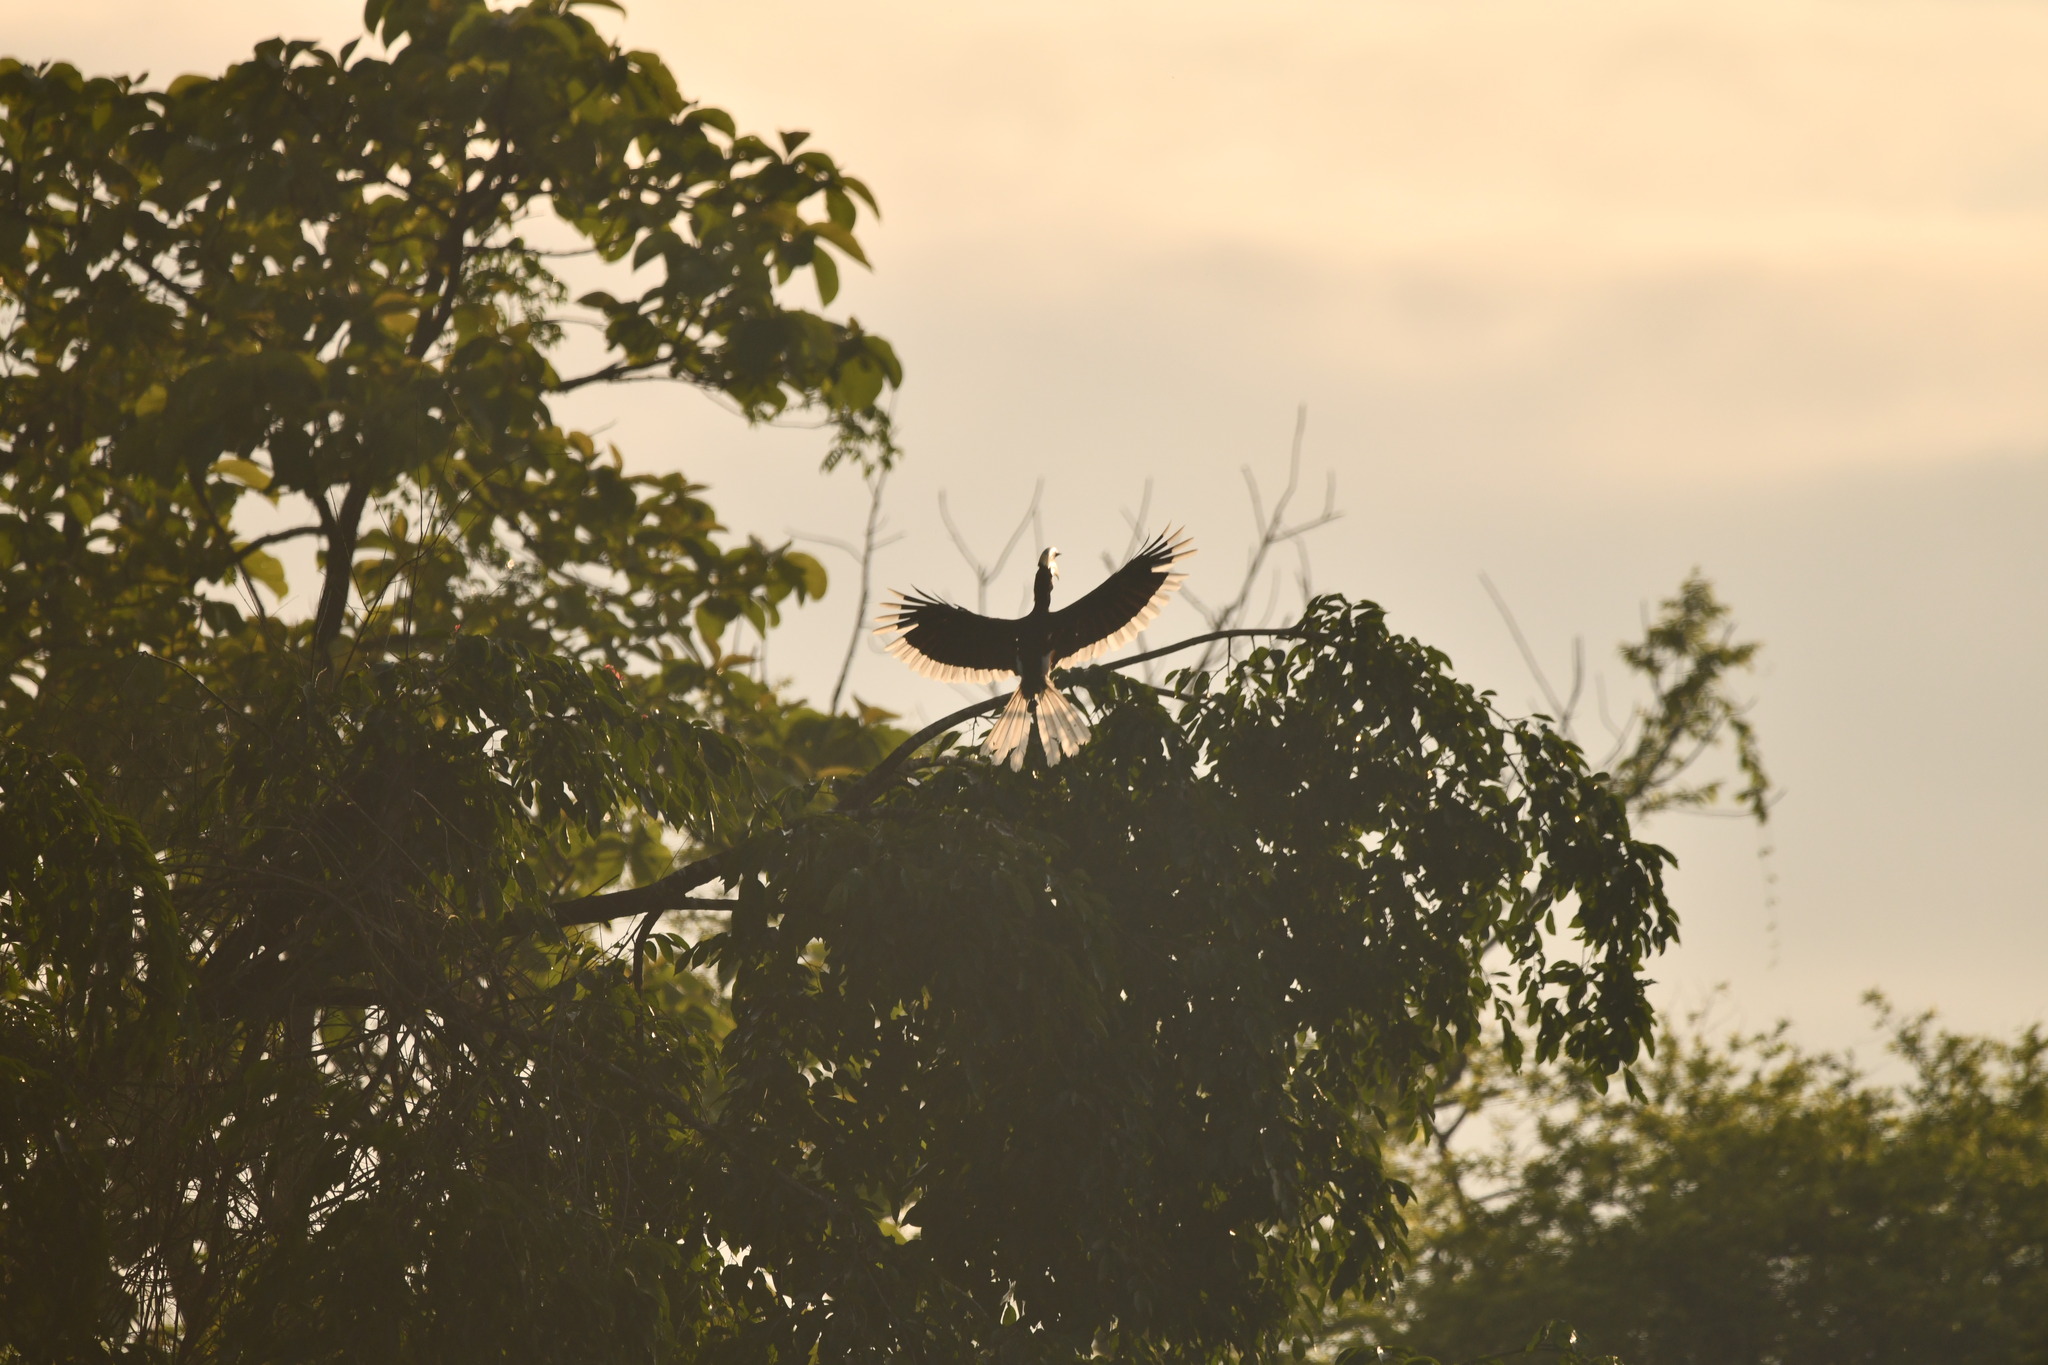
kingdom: Animalia
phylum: Chordata
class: Aves
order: Bucerotiformes
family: Bucerotidae
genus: Anthracoceros
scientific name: Anthracoceros coronatus
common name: Malabar pied hornbill
